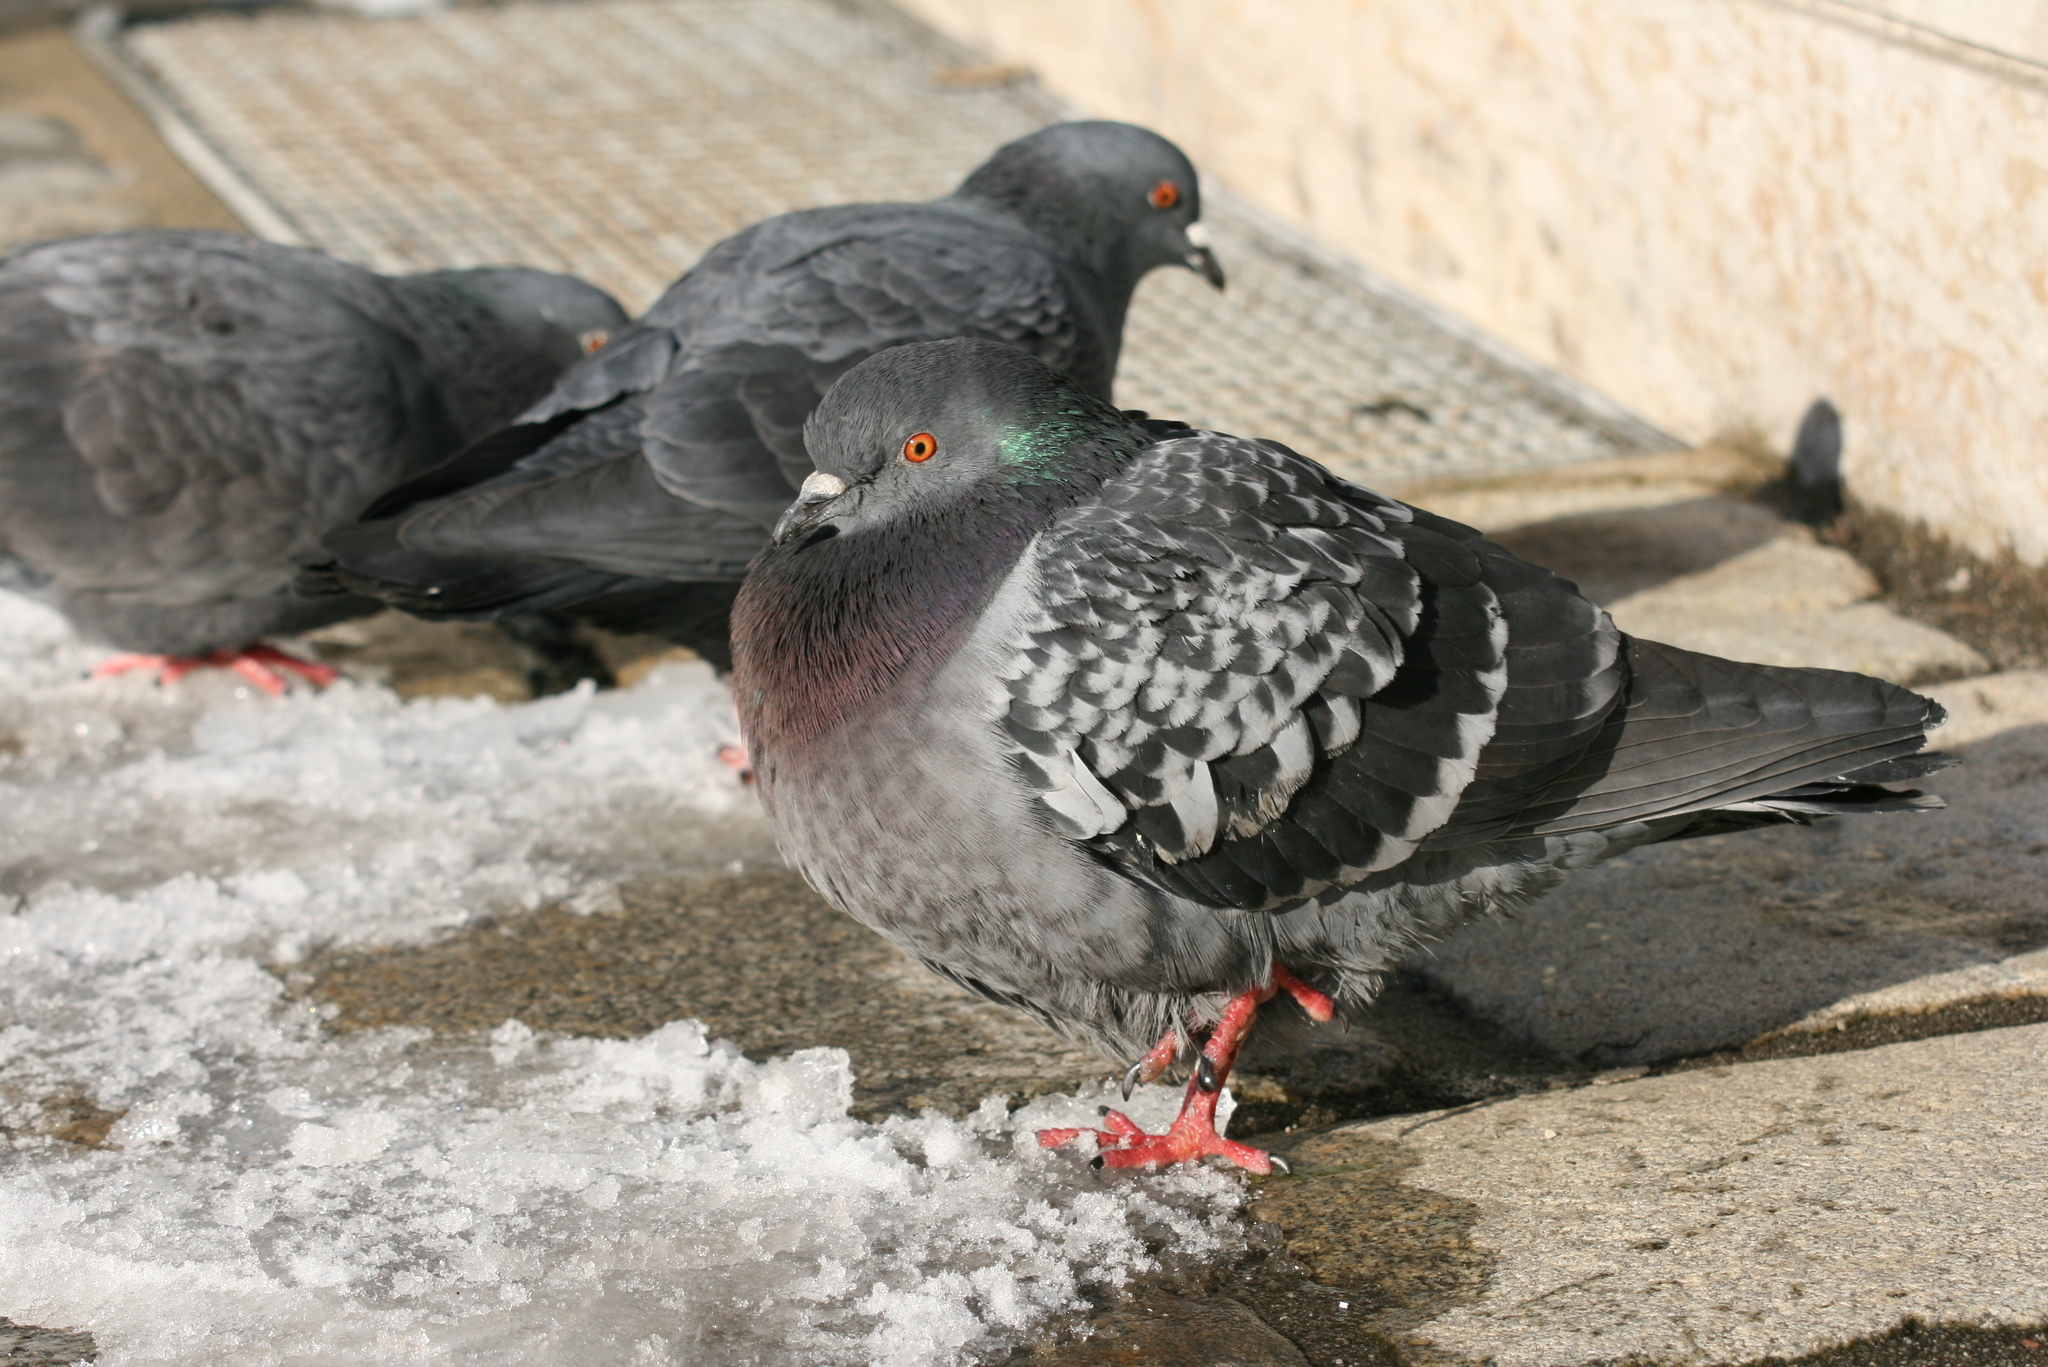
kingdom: Animalia
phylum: Chordata
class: Aves
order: Columbiformes
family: Columbidae
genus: Columba
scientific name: Columba livia
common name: Rock pigeon
